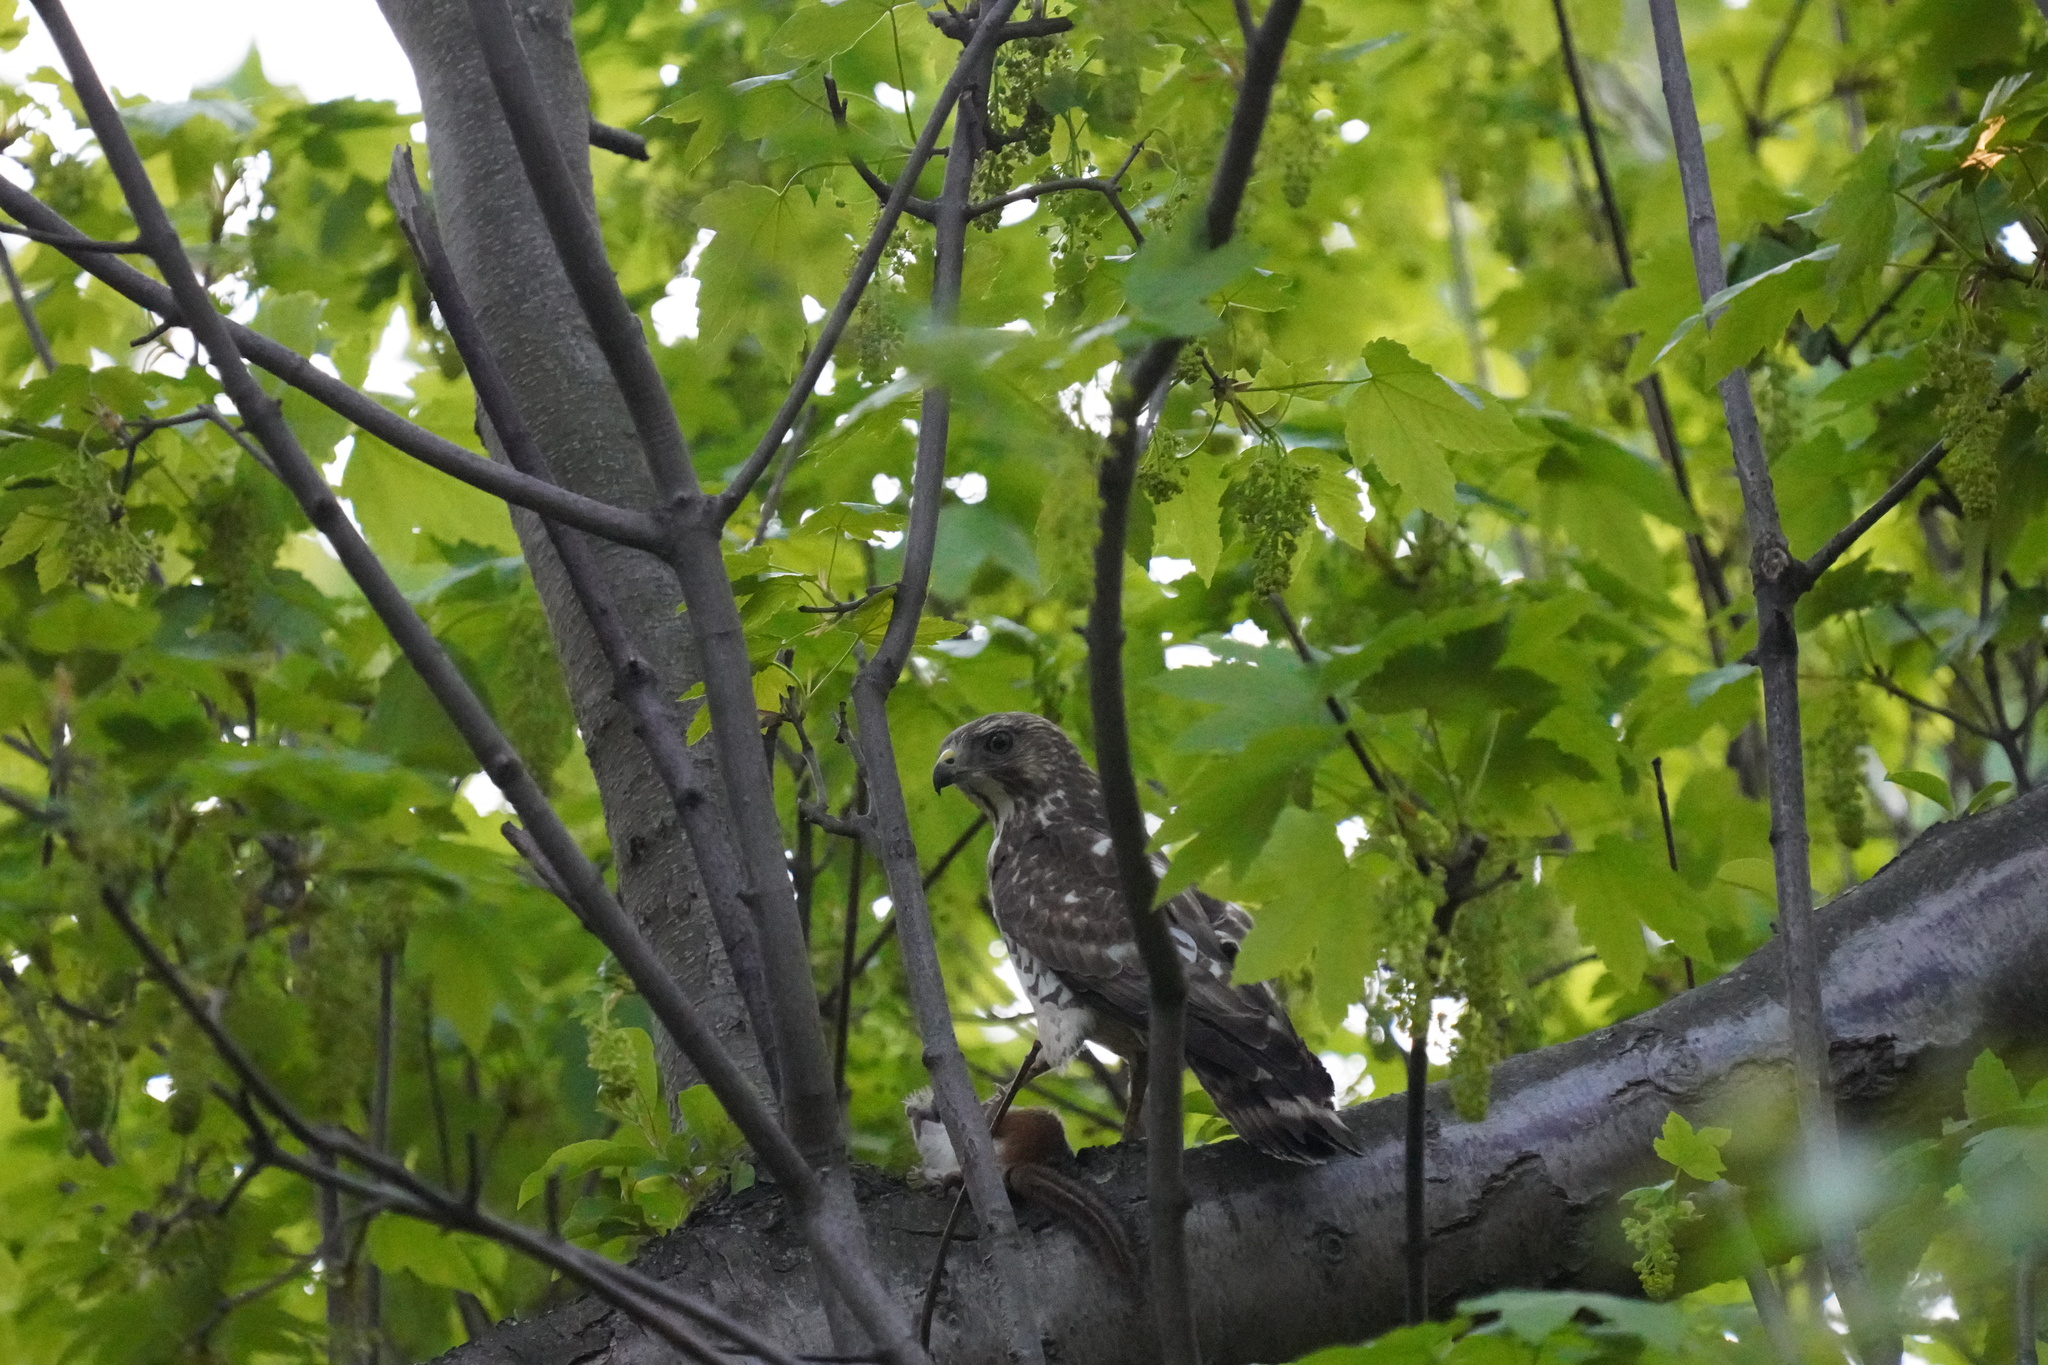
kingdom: Animalia
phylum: Chordata
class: Aves
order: Accipitriformes
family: Accipitridae
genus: Buteo
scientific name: Buteo platypterus
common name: Broad-winged hawk
